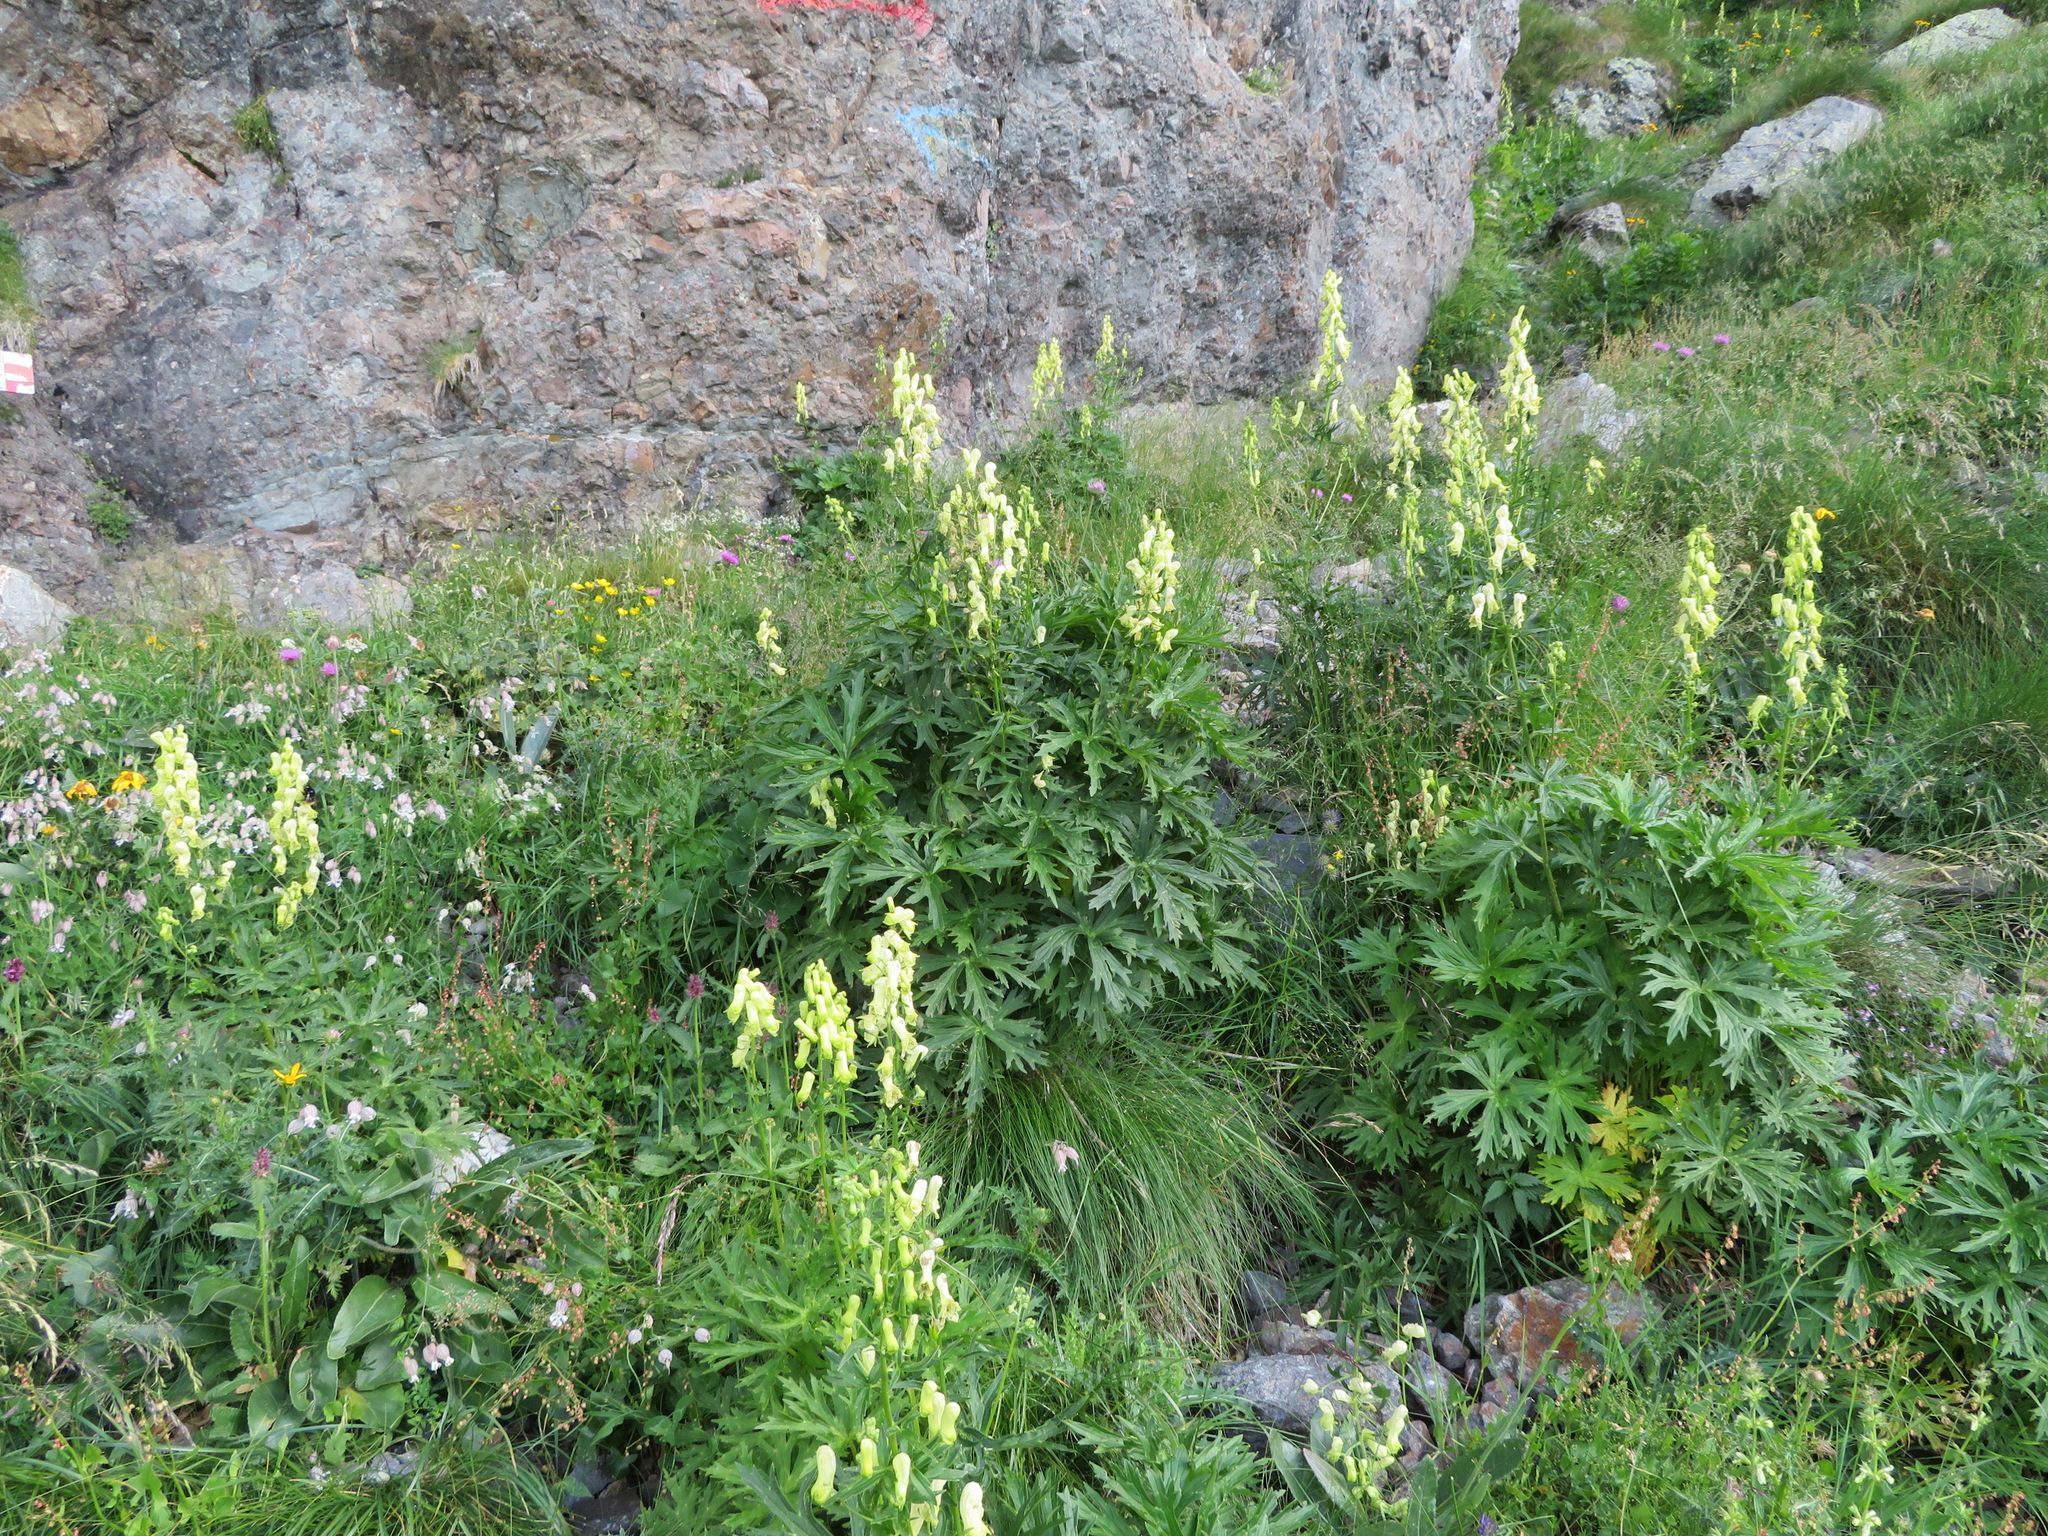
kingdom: Plantae
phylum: Tracheophyta
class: Magnoliopsida
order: Ranunculales
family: Ranunculaceae
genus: Aconitum
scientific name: Aconitum lycoctonum
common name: Wolf's-bane
